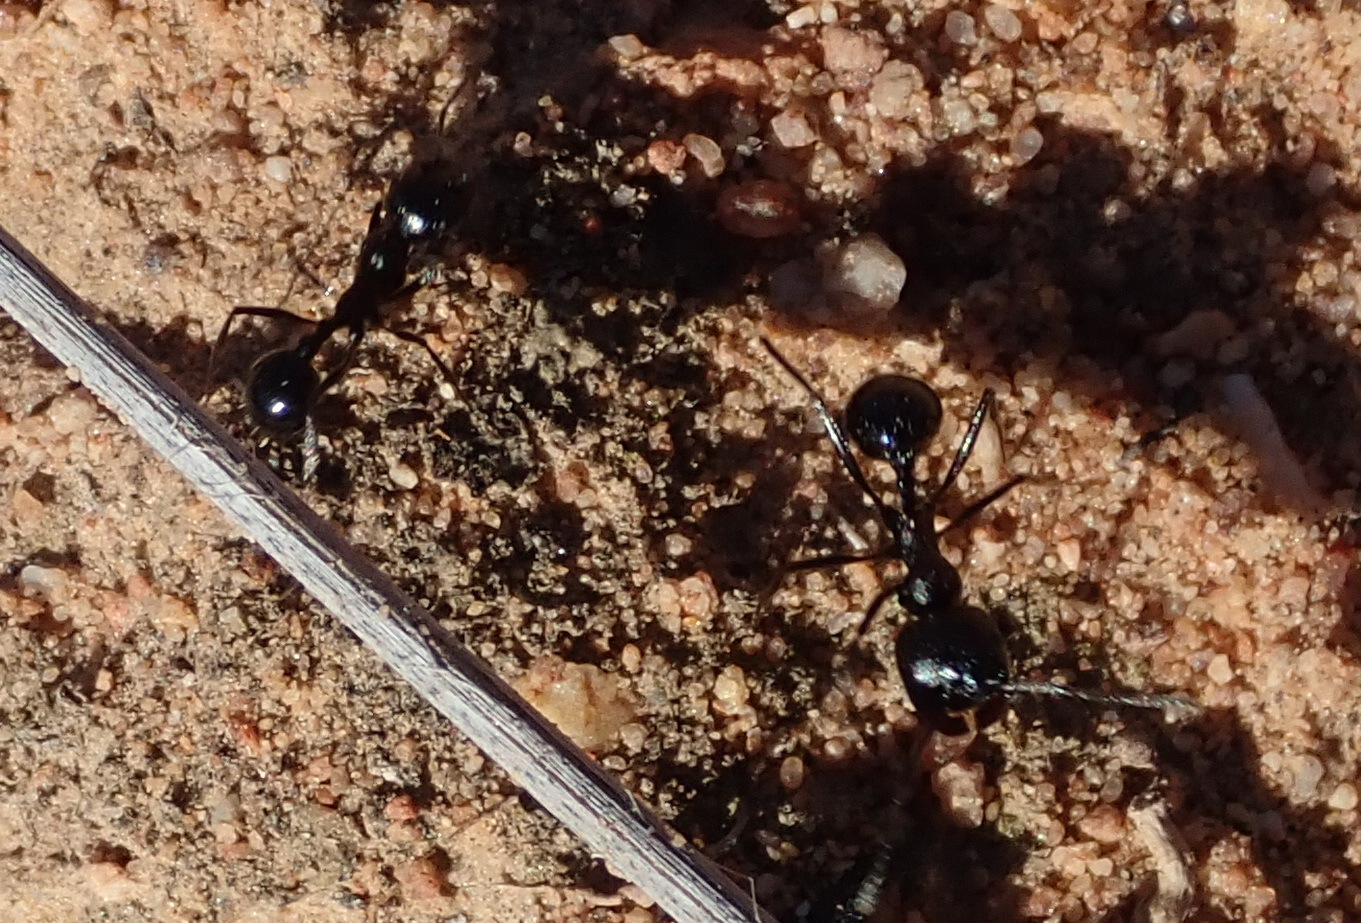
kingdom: Animalia
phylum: Arthropoda
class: Insecta
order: Hymenoptera
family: Formicidae
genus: Messor
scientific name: Messor capensis
